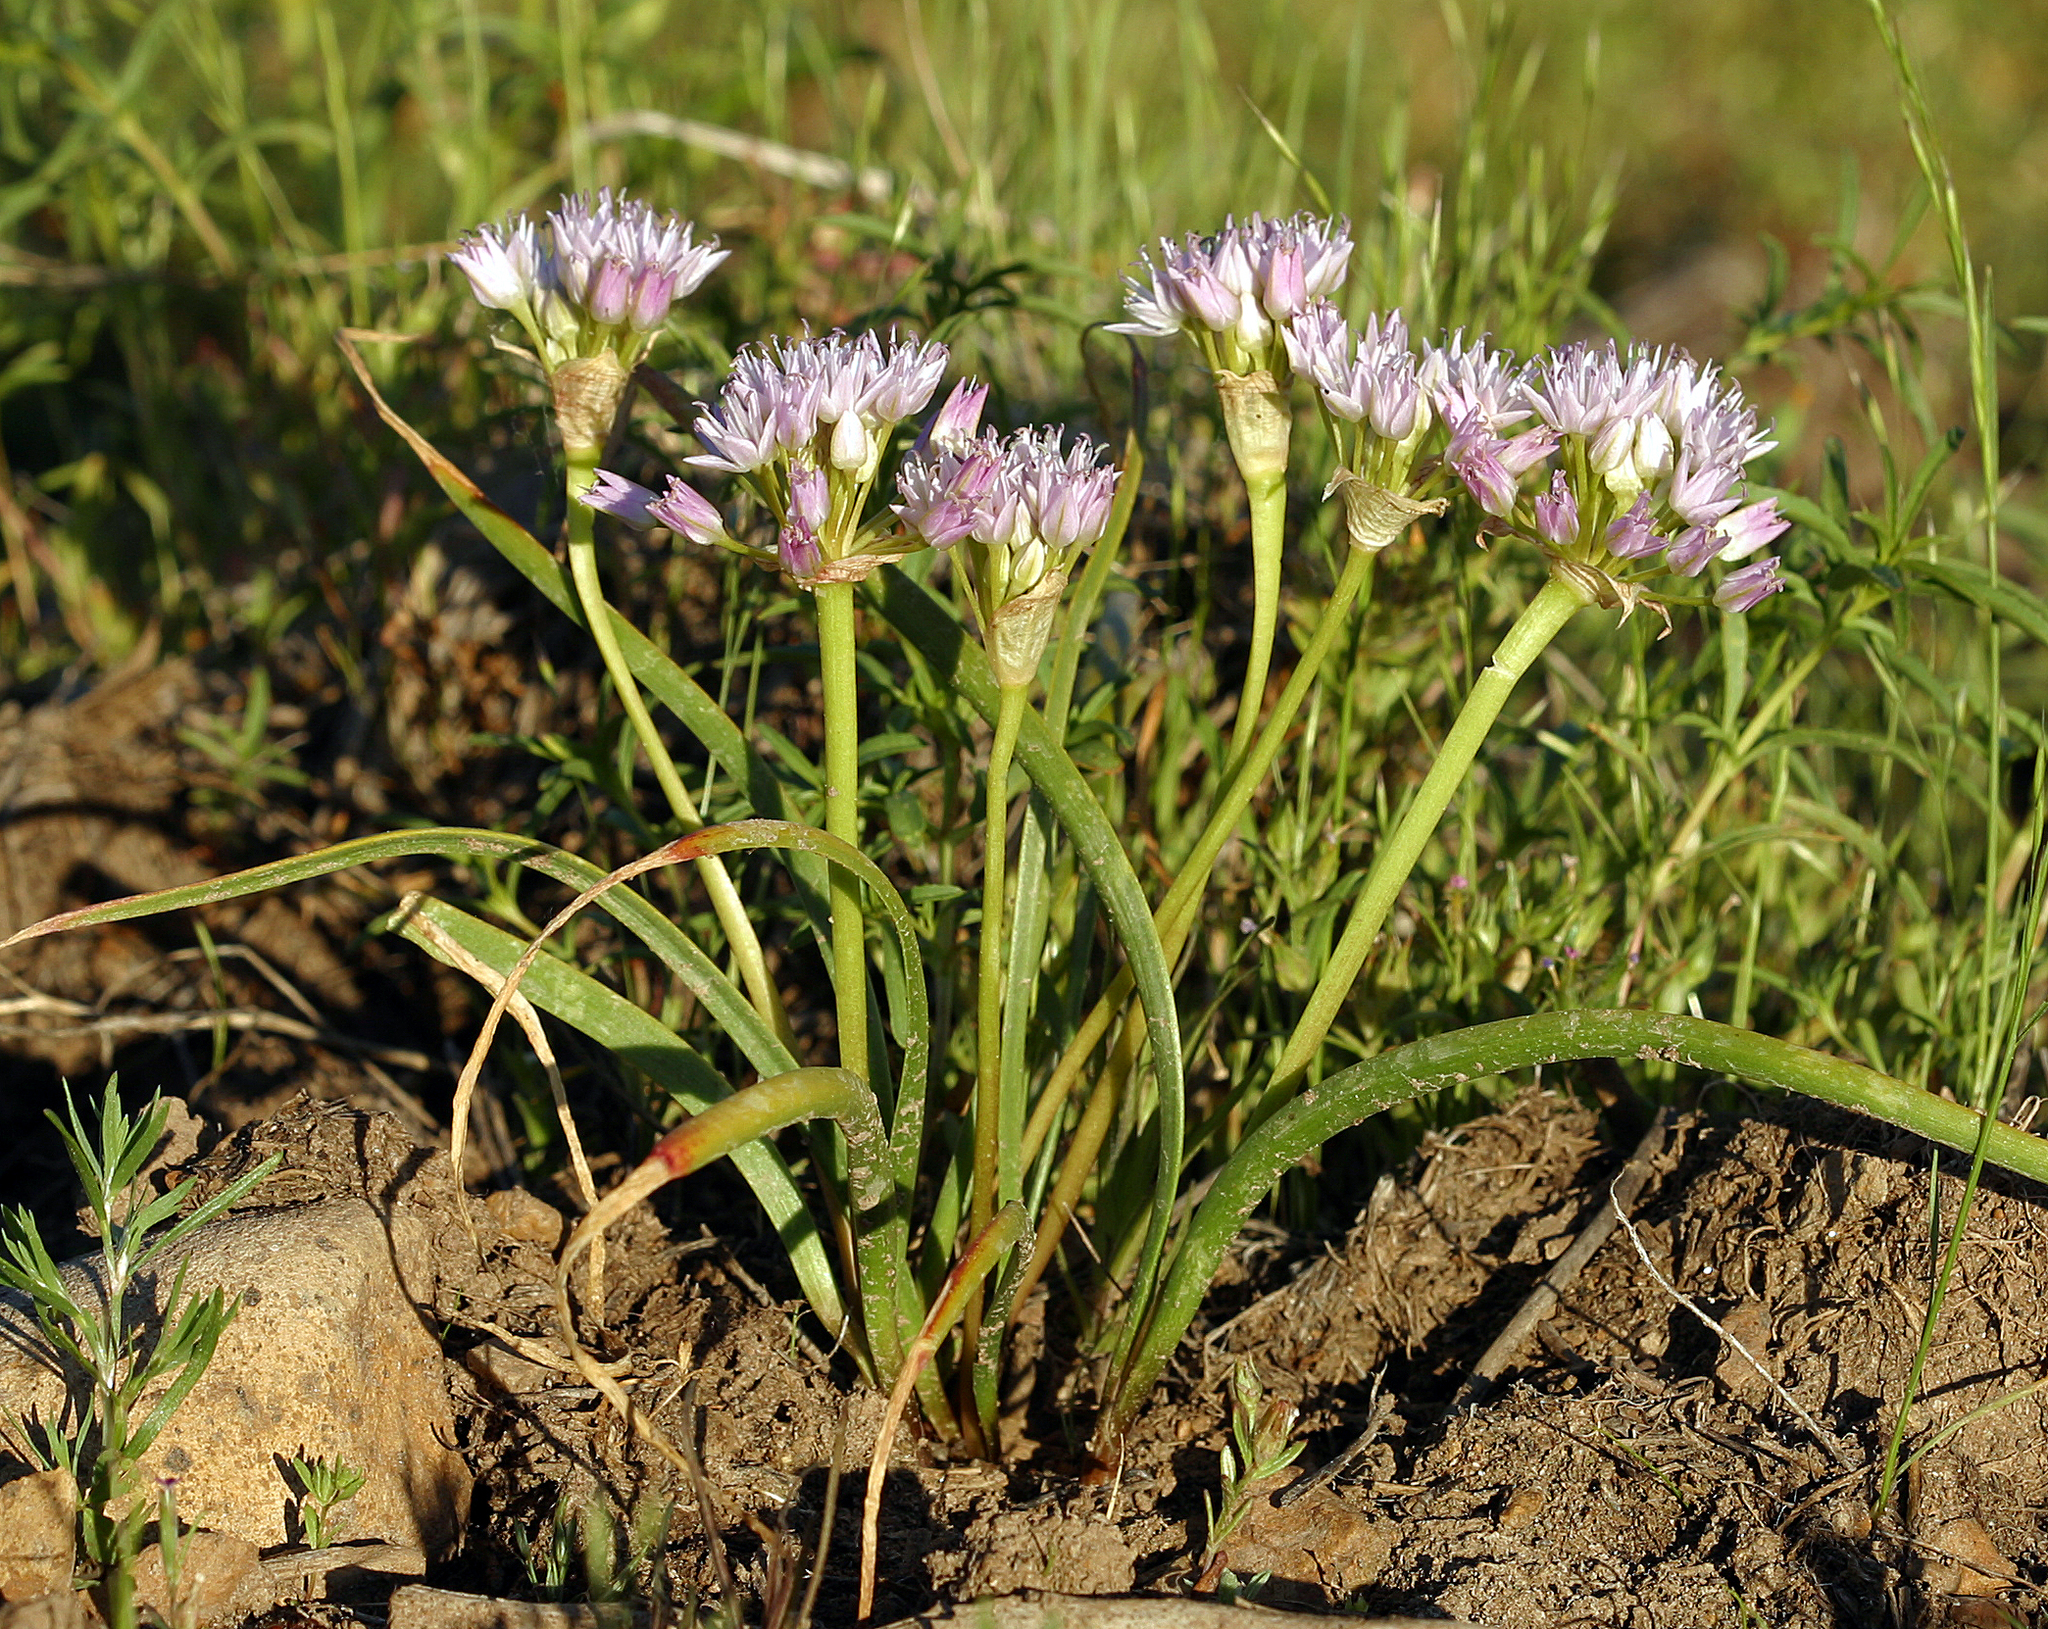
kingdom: Plantae
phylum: Tracheophyta
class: Liliopsida
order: Asparagales
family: Amaryllidaceae
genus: Allium
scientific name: Allium lemmonii
